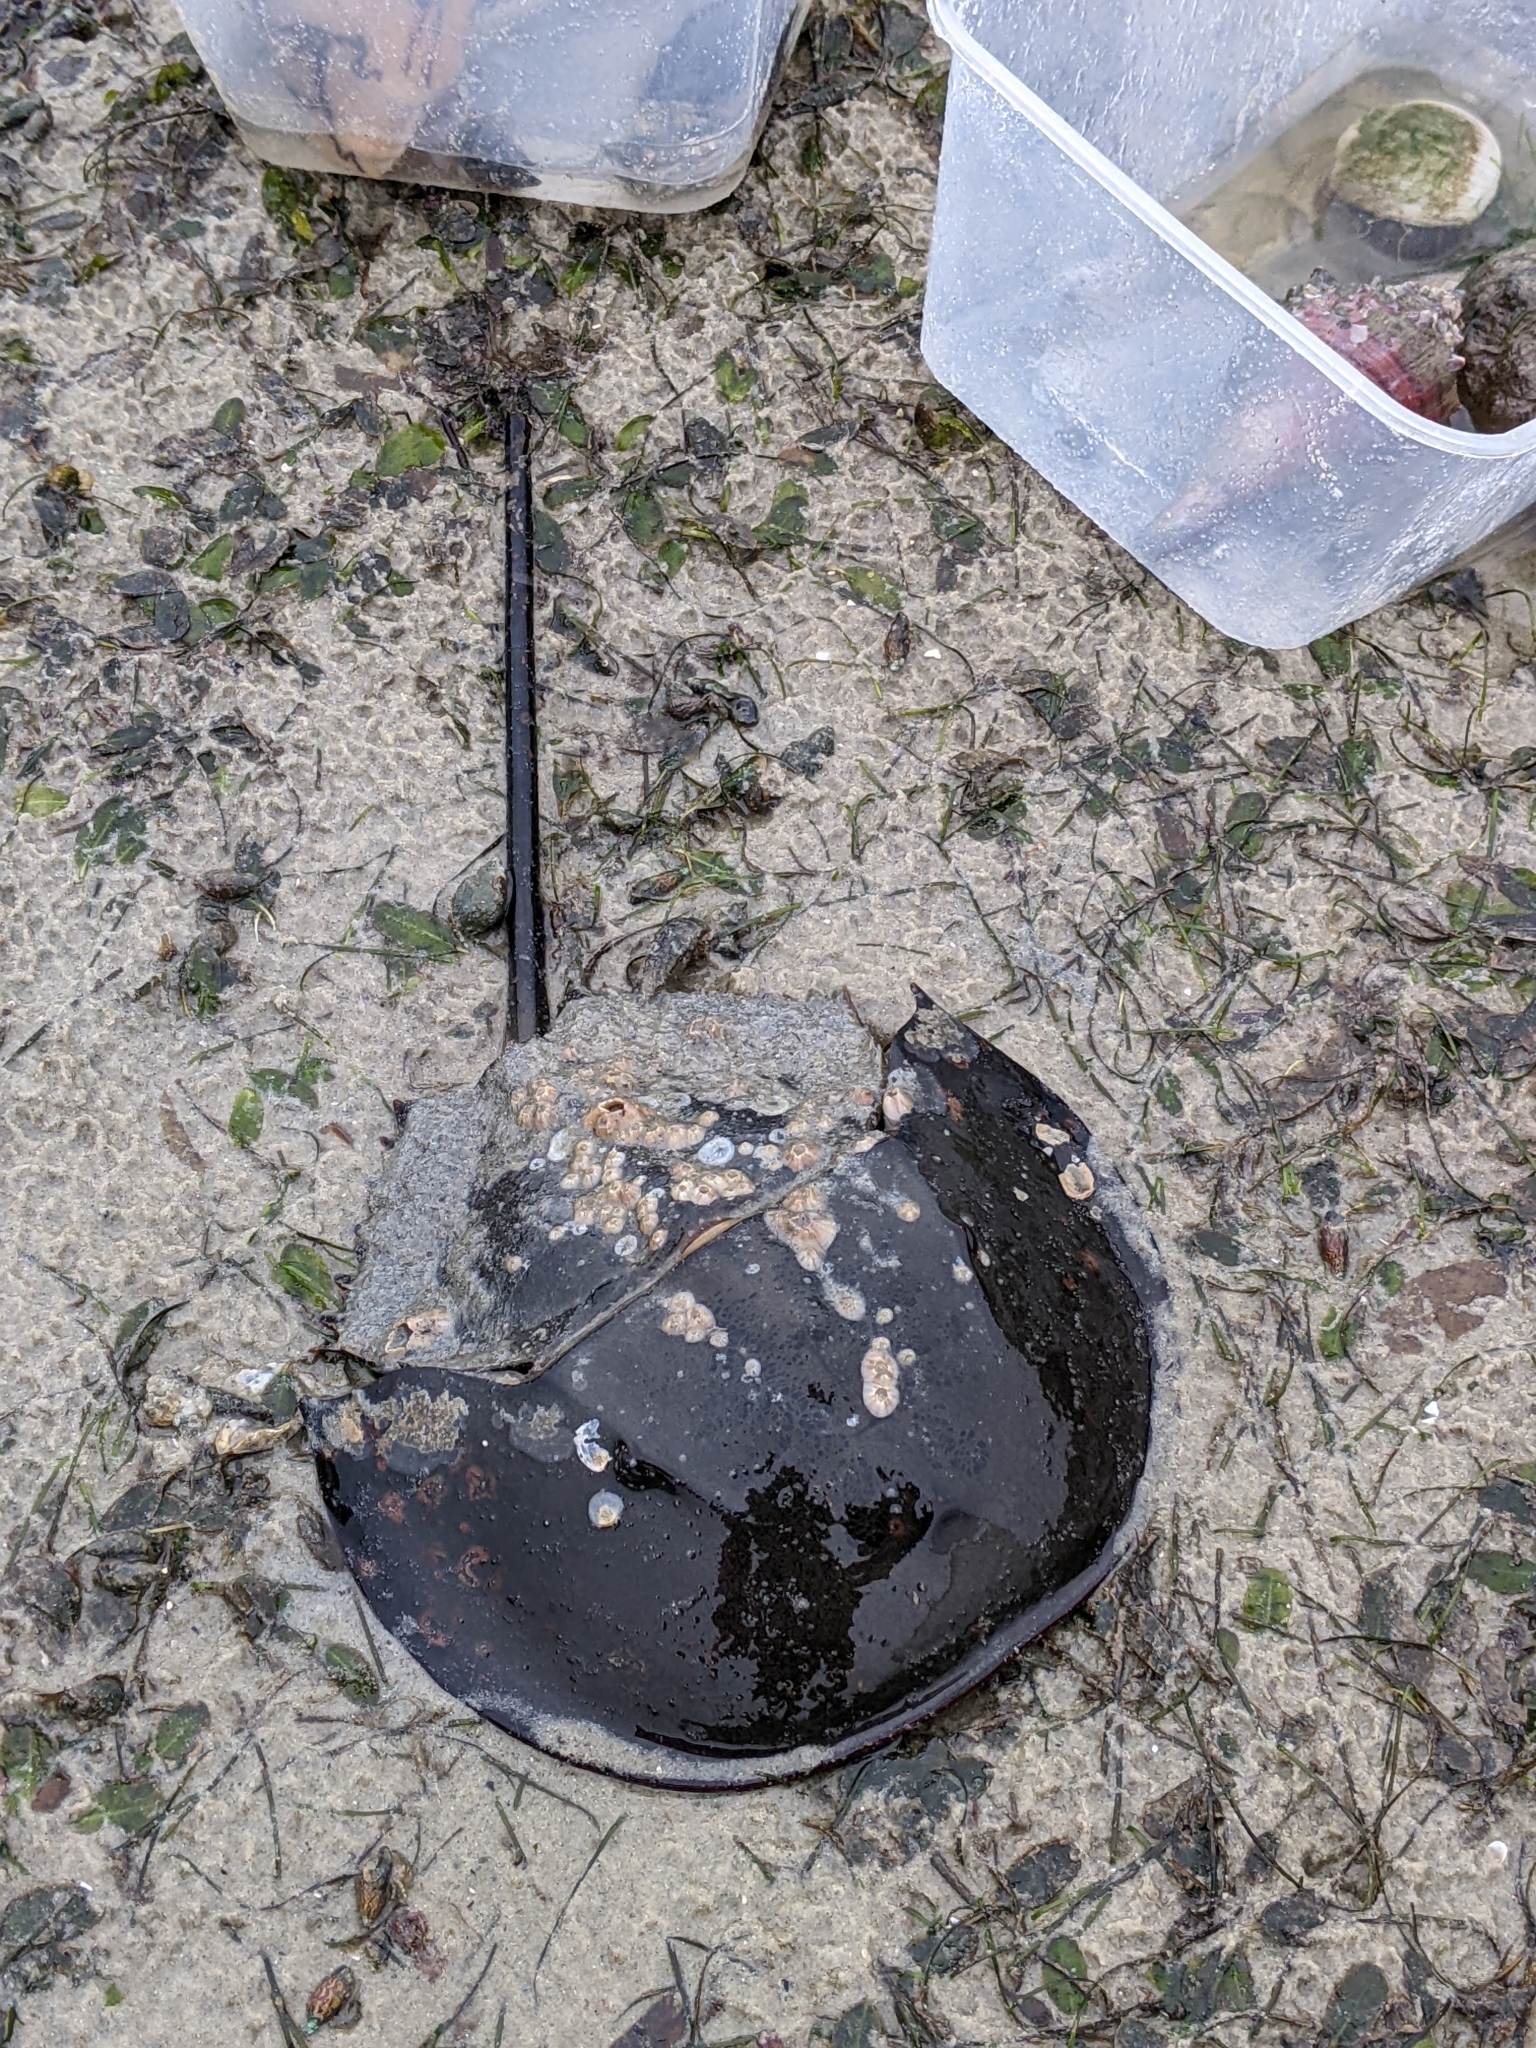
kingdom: Animalia
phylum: Arthropoda
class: Merostomata
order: Xiphosurida
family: Limulidae
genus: Carcinoscorpius
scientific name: Carcinoscorpius rotundicauda
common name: Horseshoe crab
